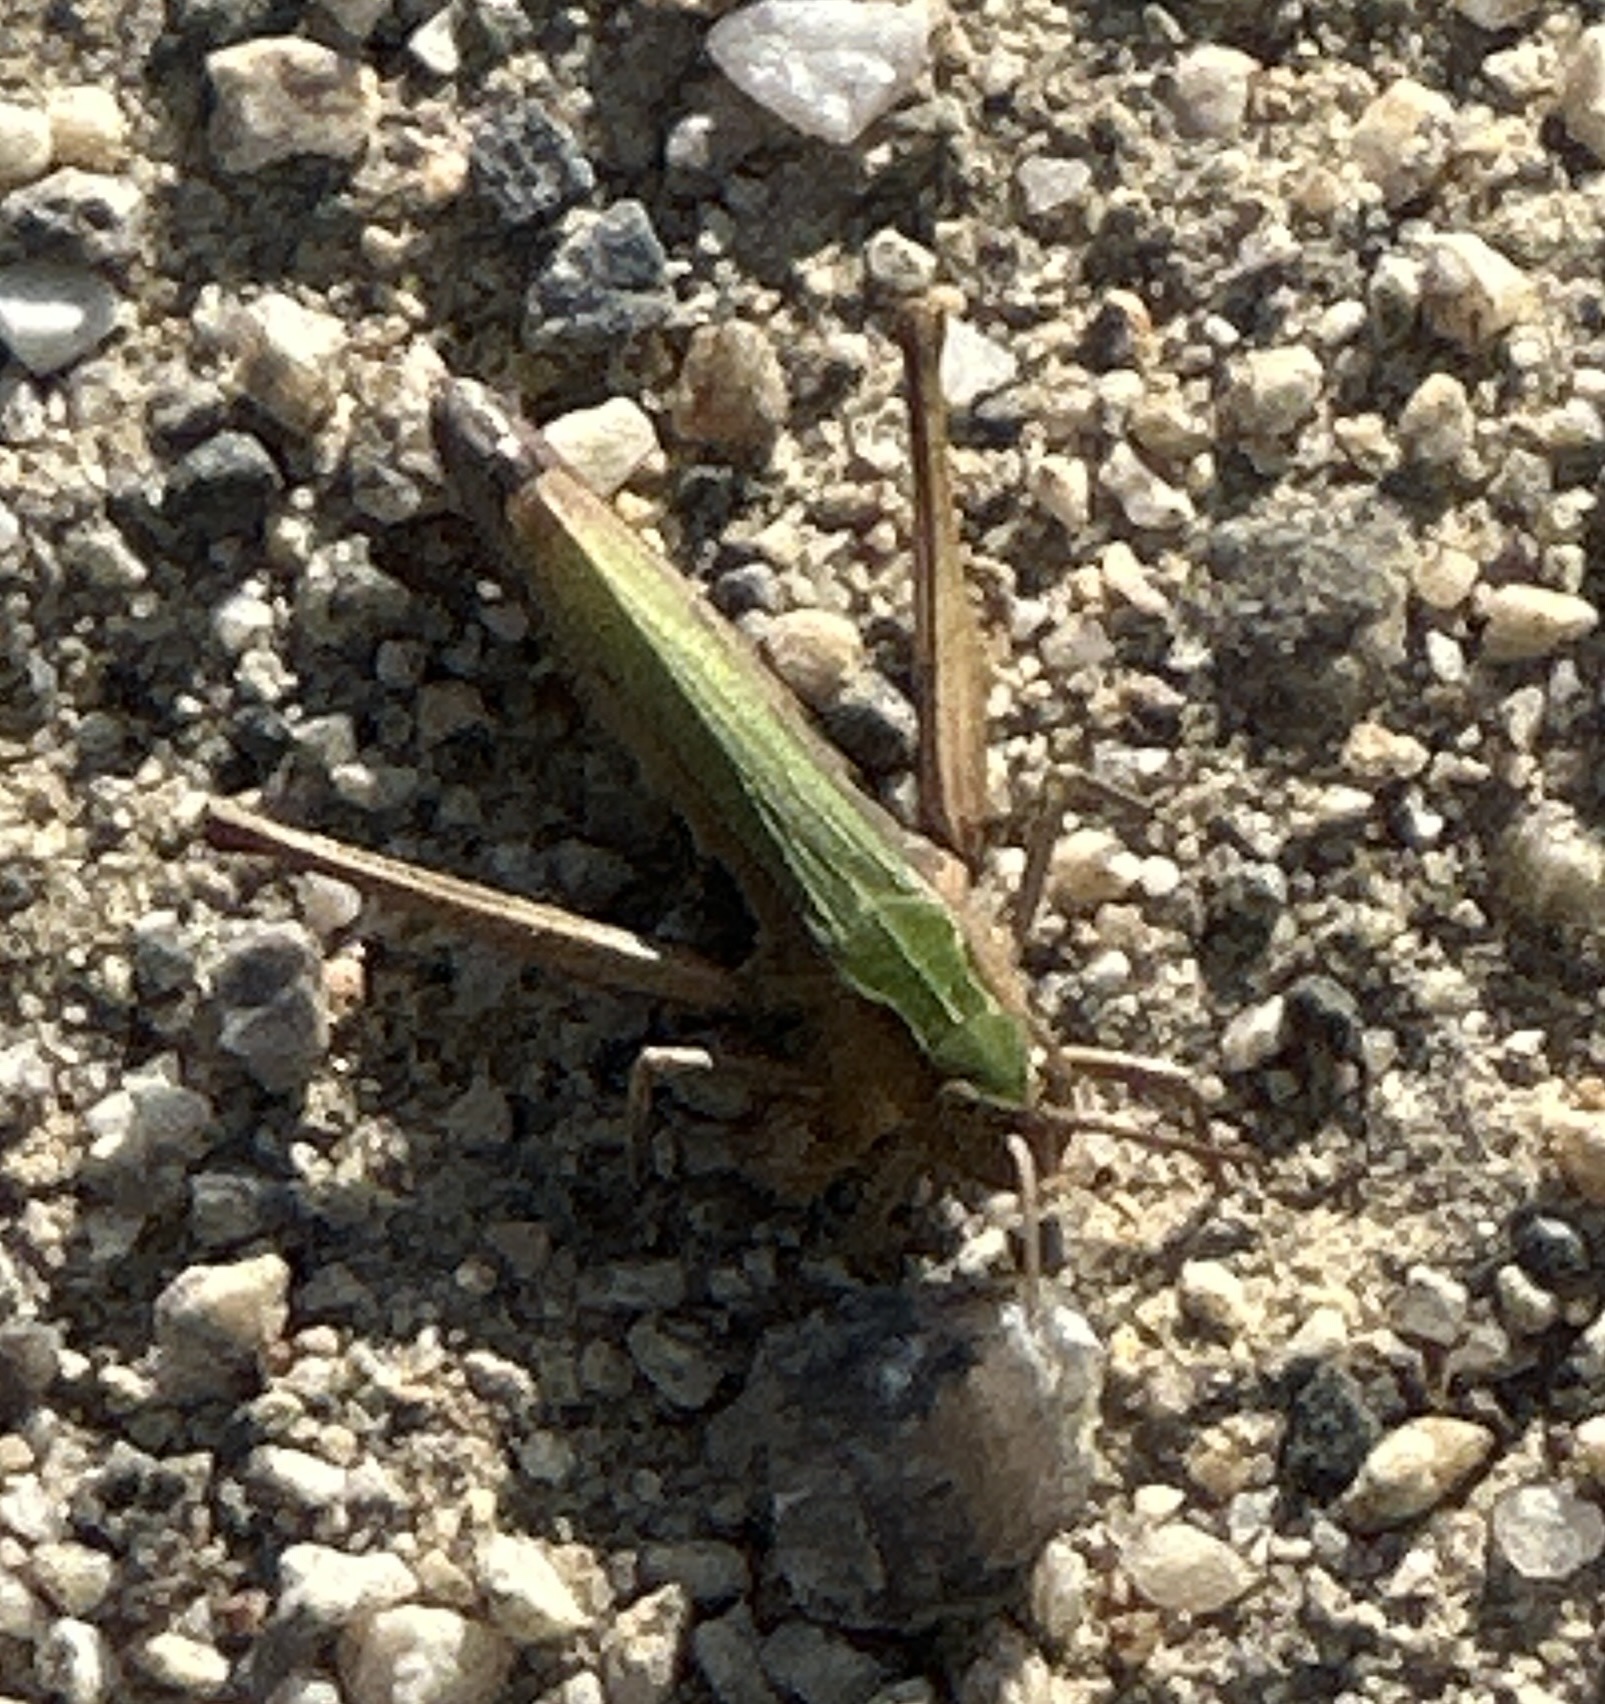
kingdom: Animalia
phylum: Arthropoda
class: Insecta
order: Orthoptera
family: Acrididae
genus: Chorthippus
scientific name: Chorthippus dorsatus
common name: Steppe grasshopper
